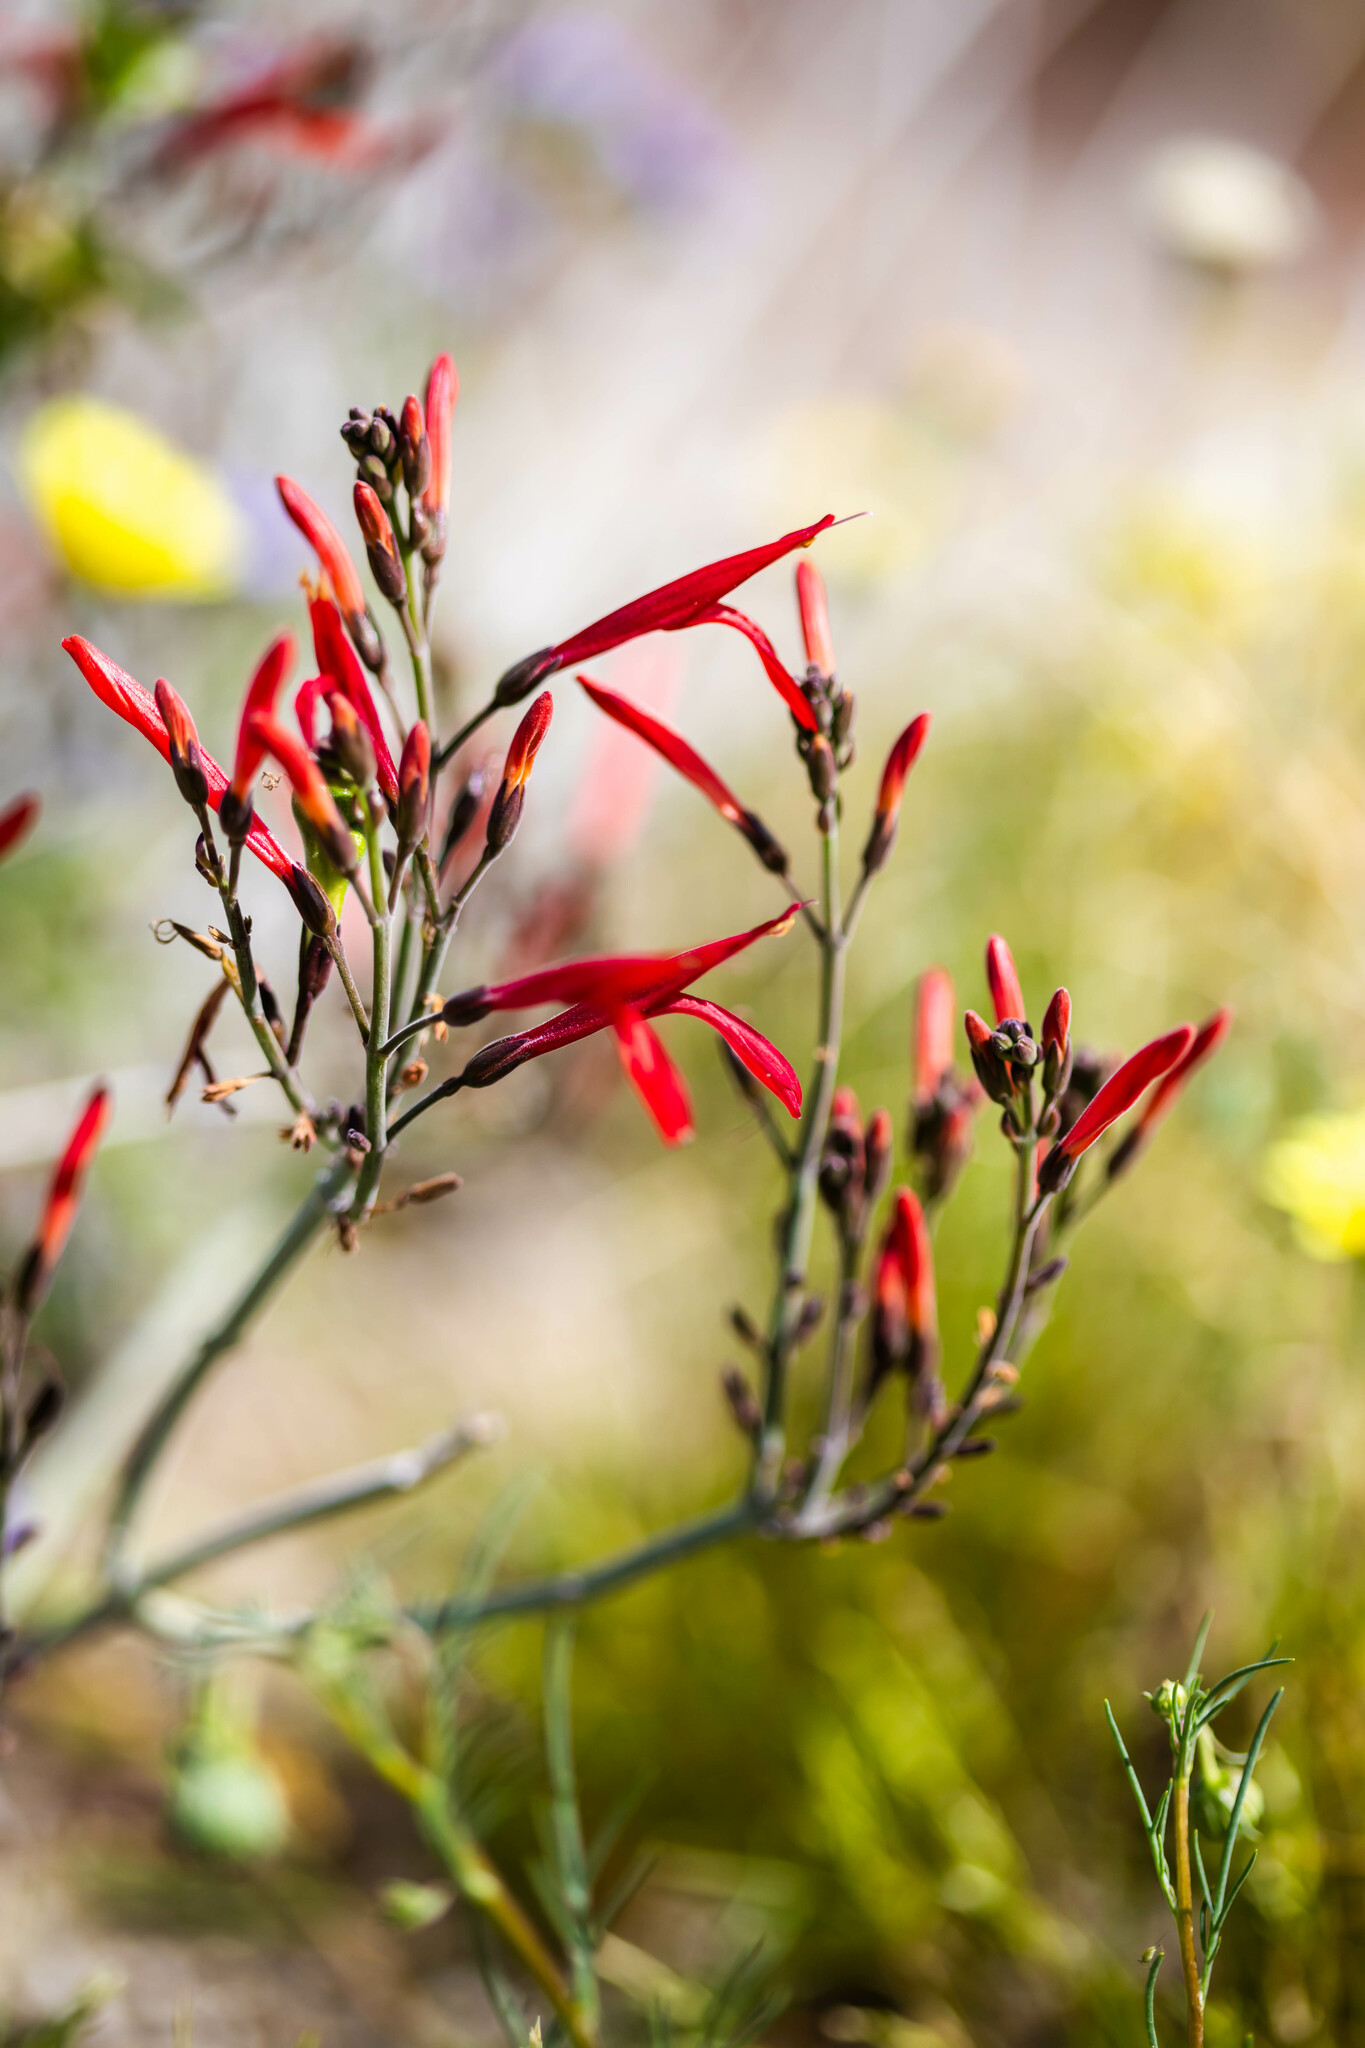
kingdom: Plantae
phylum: Tracheophyta
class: Magnoliopsida
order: Lamiales
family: Acanthaceae
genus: Justicia
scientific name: Justicia californica
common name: Chuparosa-honeysuckle
